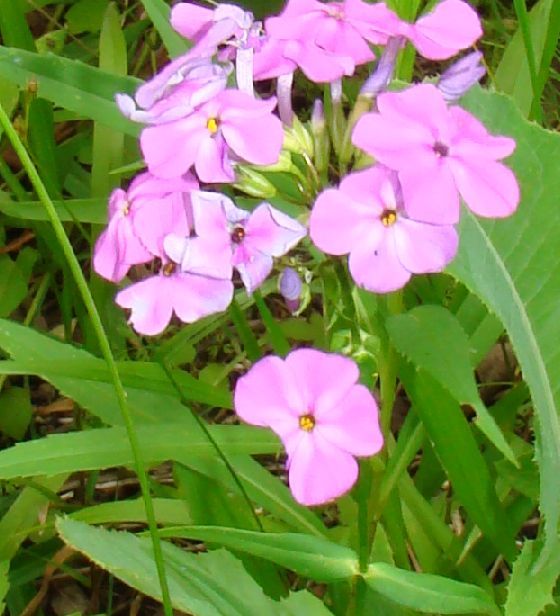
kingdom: Plantae
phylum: Tracheophyta
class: Magnoliopsida
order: Ericales
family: Polemoniaceae
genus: Phlox
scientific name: Phlox glaberrima
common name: Smooth phlox
